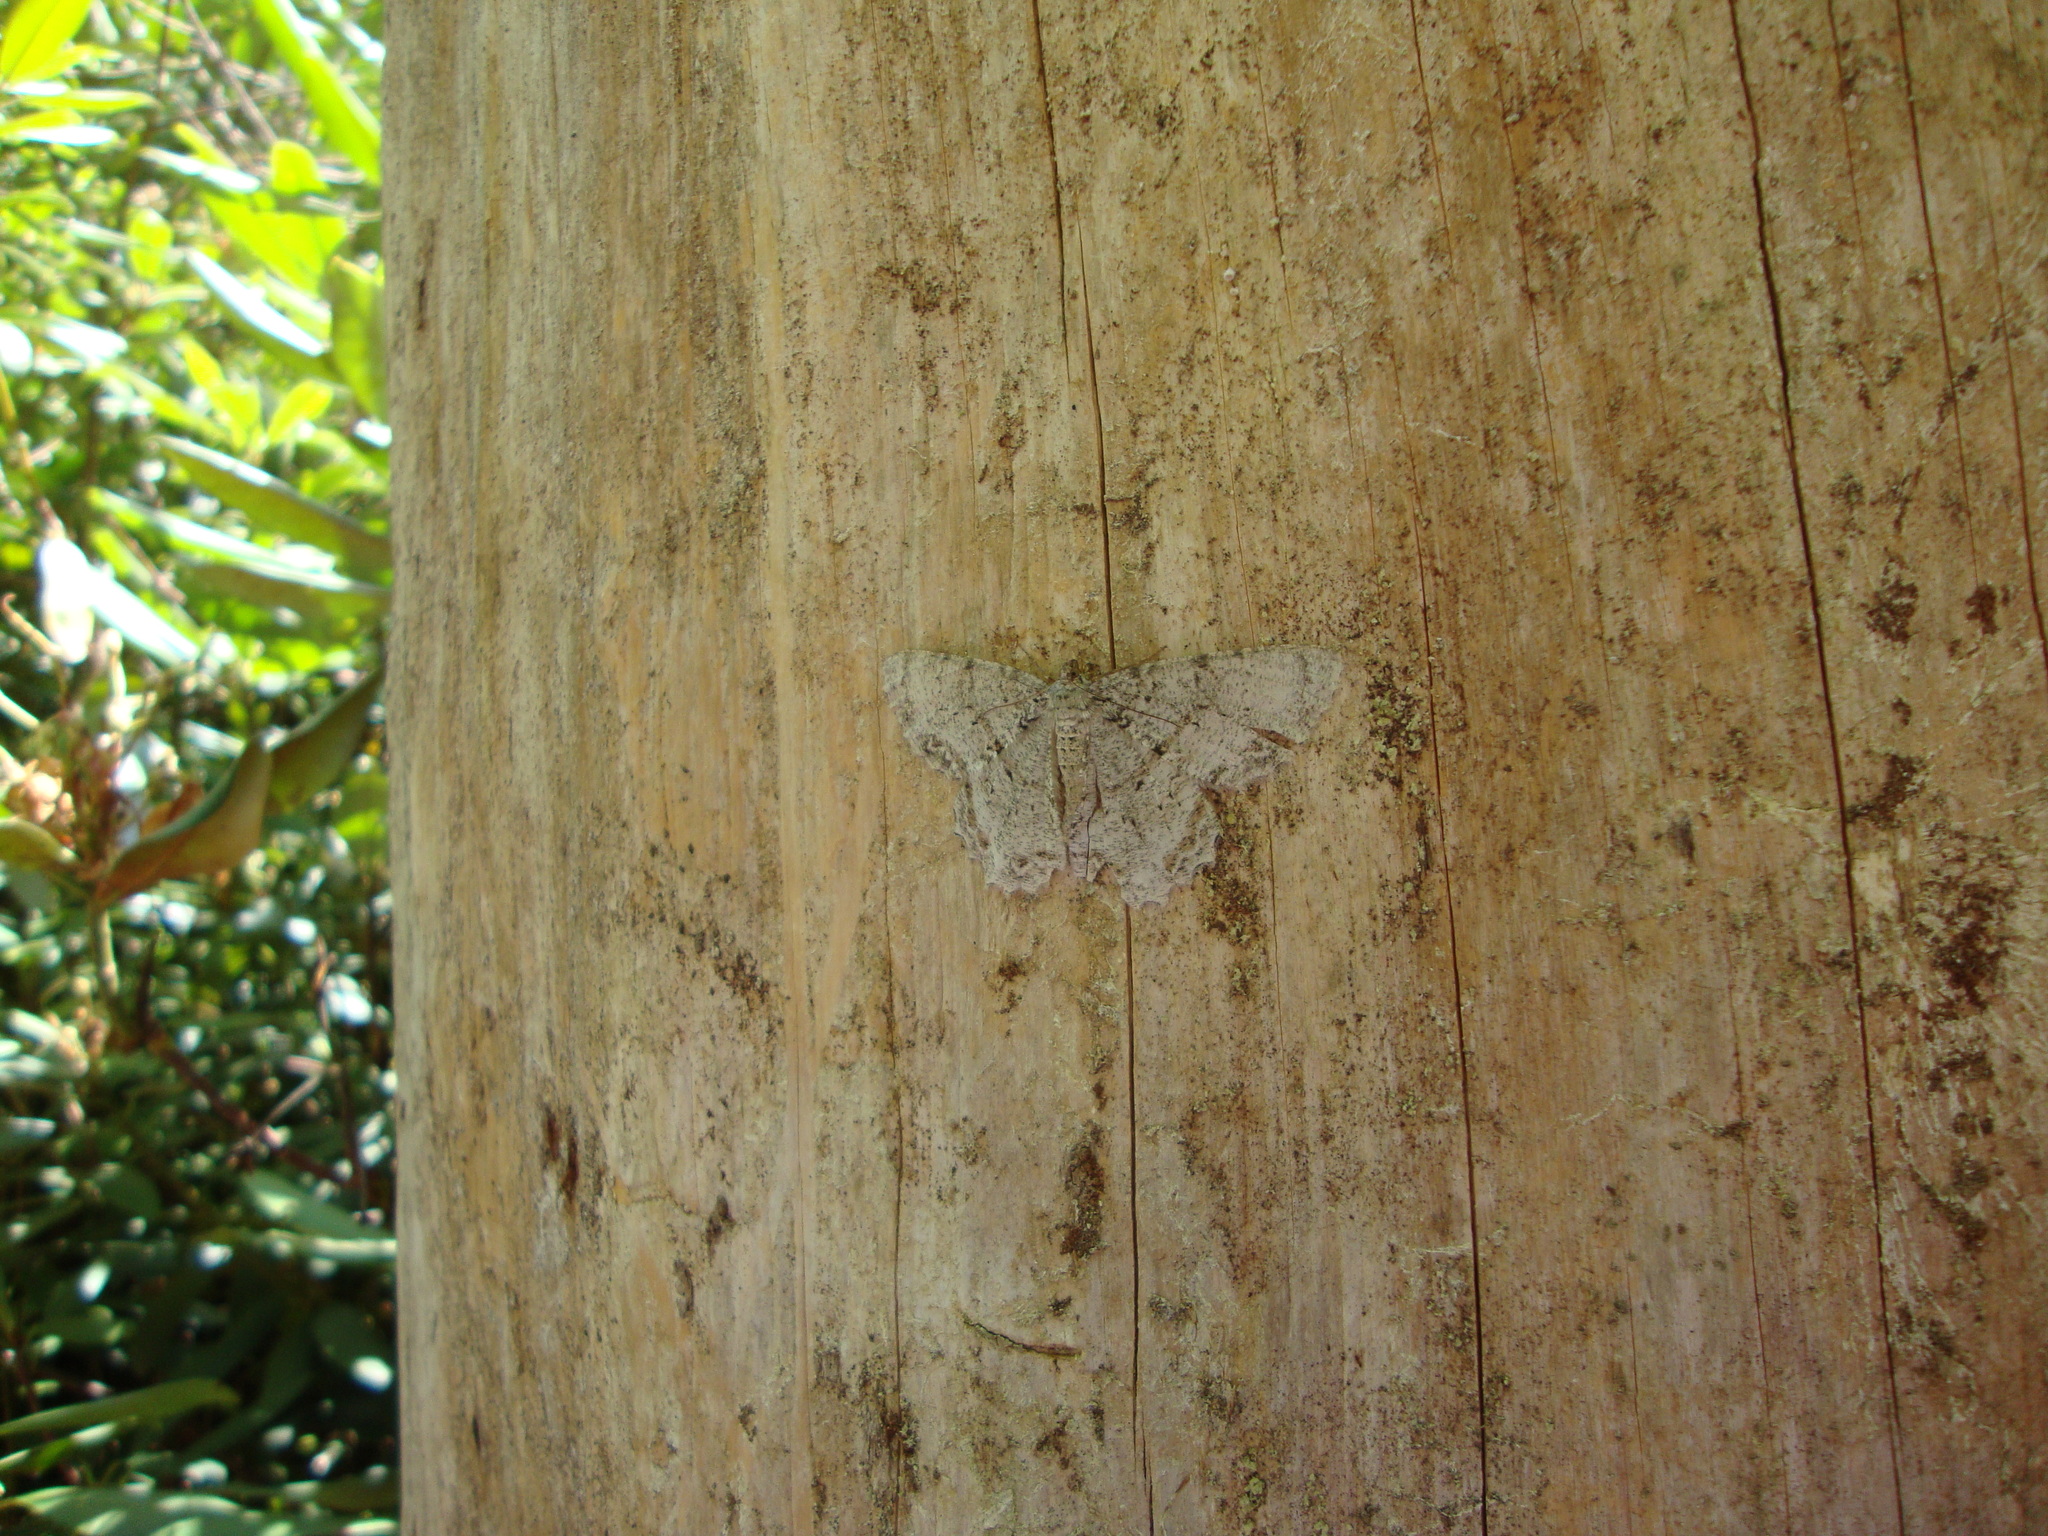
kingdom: Animalia
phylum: Arthropoda
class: Insecta
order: Lepidoptera
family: Geometridae
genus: Epimecis
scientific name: Epimecis hortaria
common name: Tulip-tree beauty
